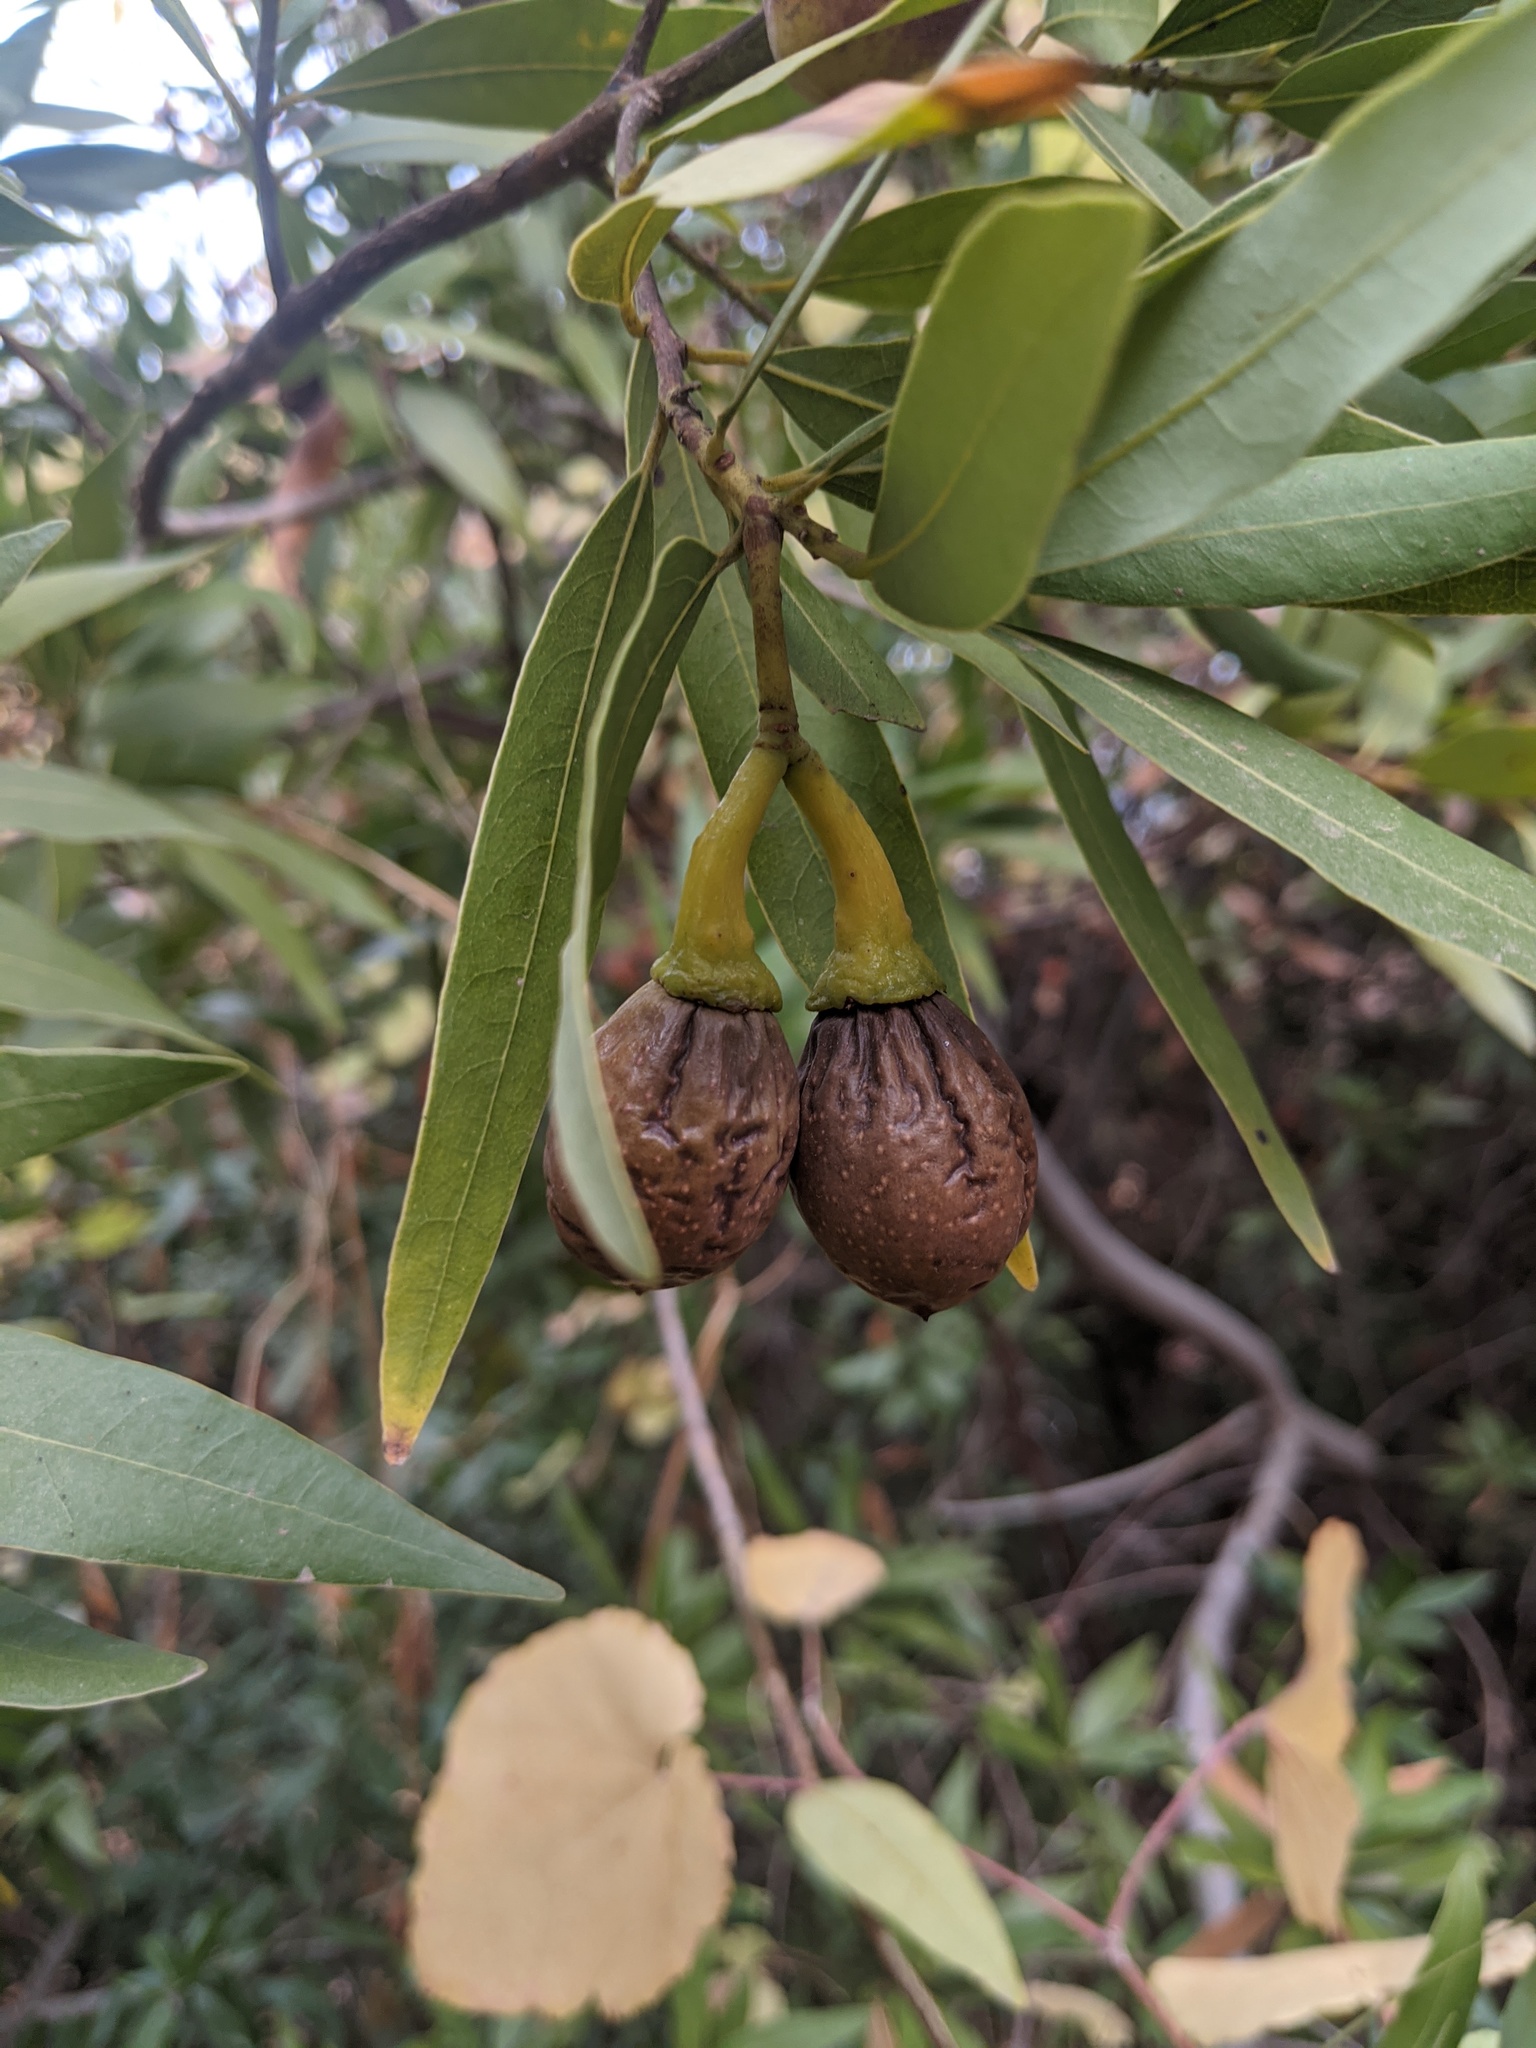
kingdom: Plantae
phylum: Tracheophyta
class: Magnoliopsida
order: Laurales
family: Lauraceae
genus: Umbellularia
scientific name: Umbellularia californica
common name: California bay
